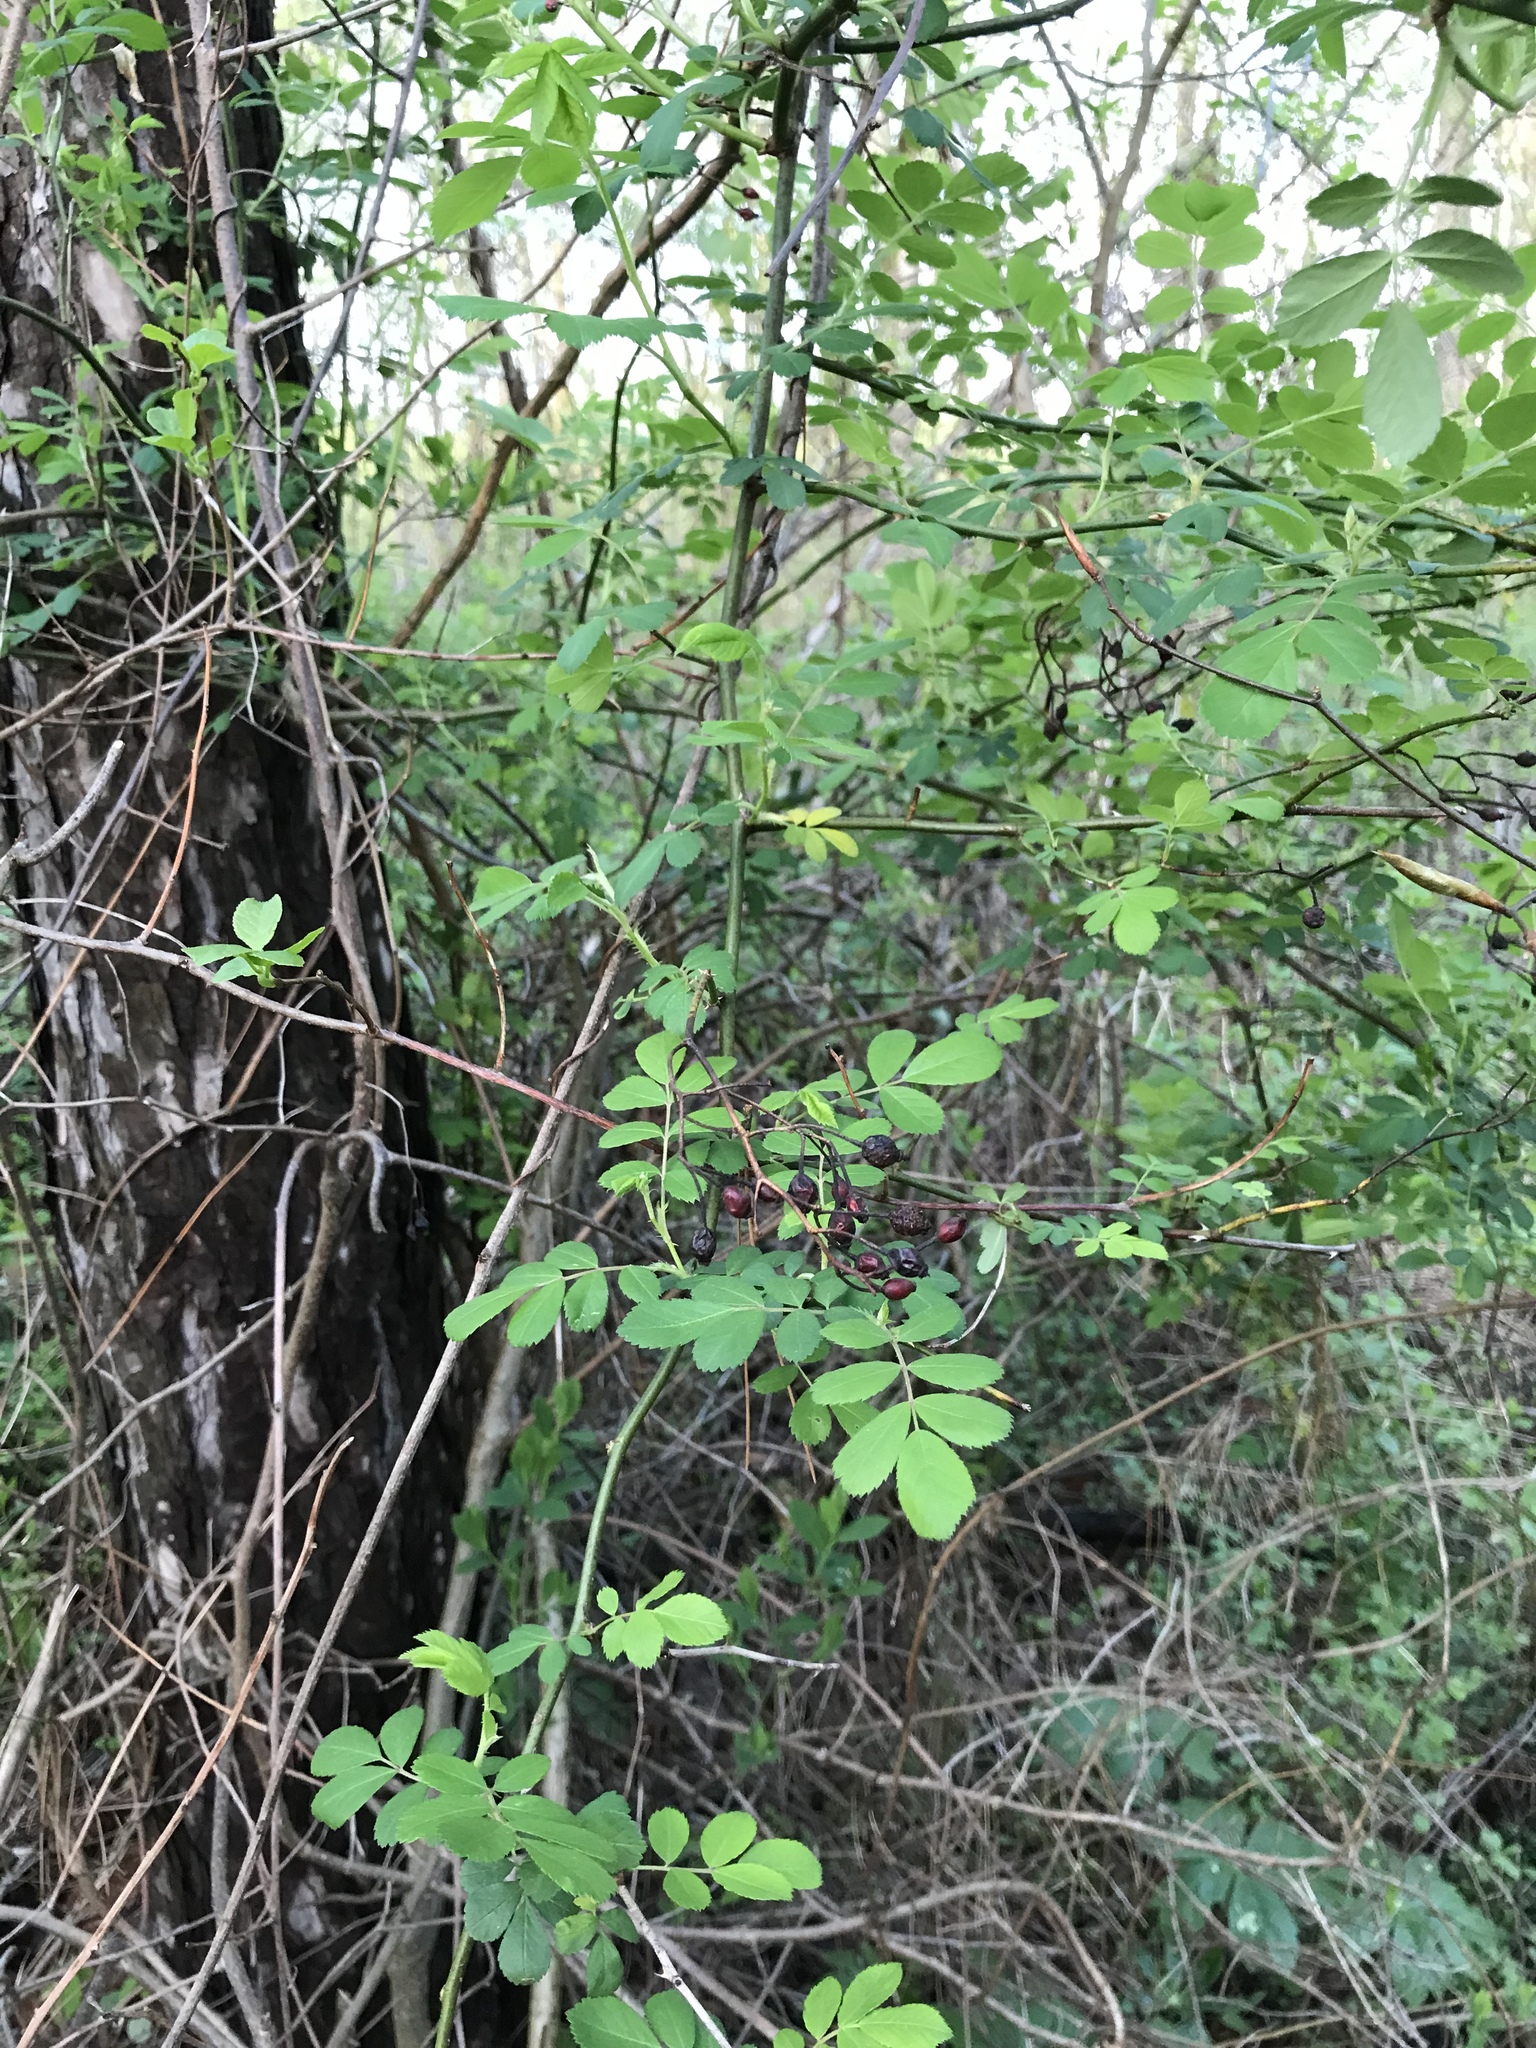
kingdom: Plantae
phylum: Tracheophyta
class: Magnoliopsida
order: Rosales
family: Rosaceae
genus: Rosa
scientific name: Rosa multiflora
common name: Multiflora rose
